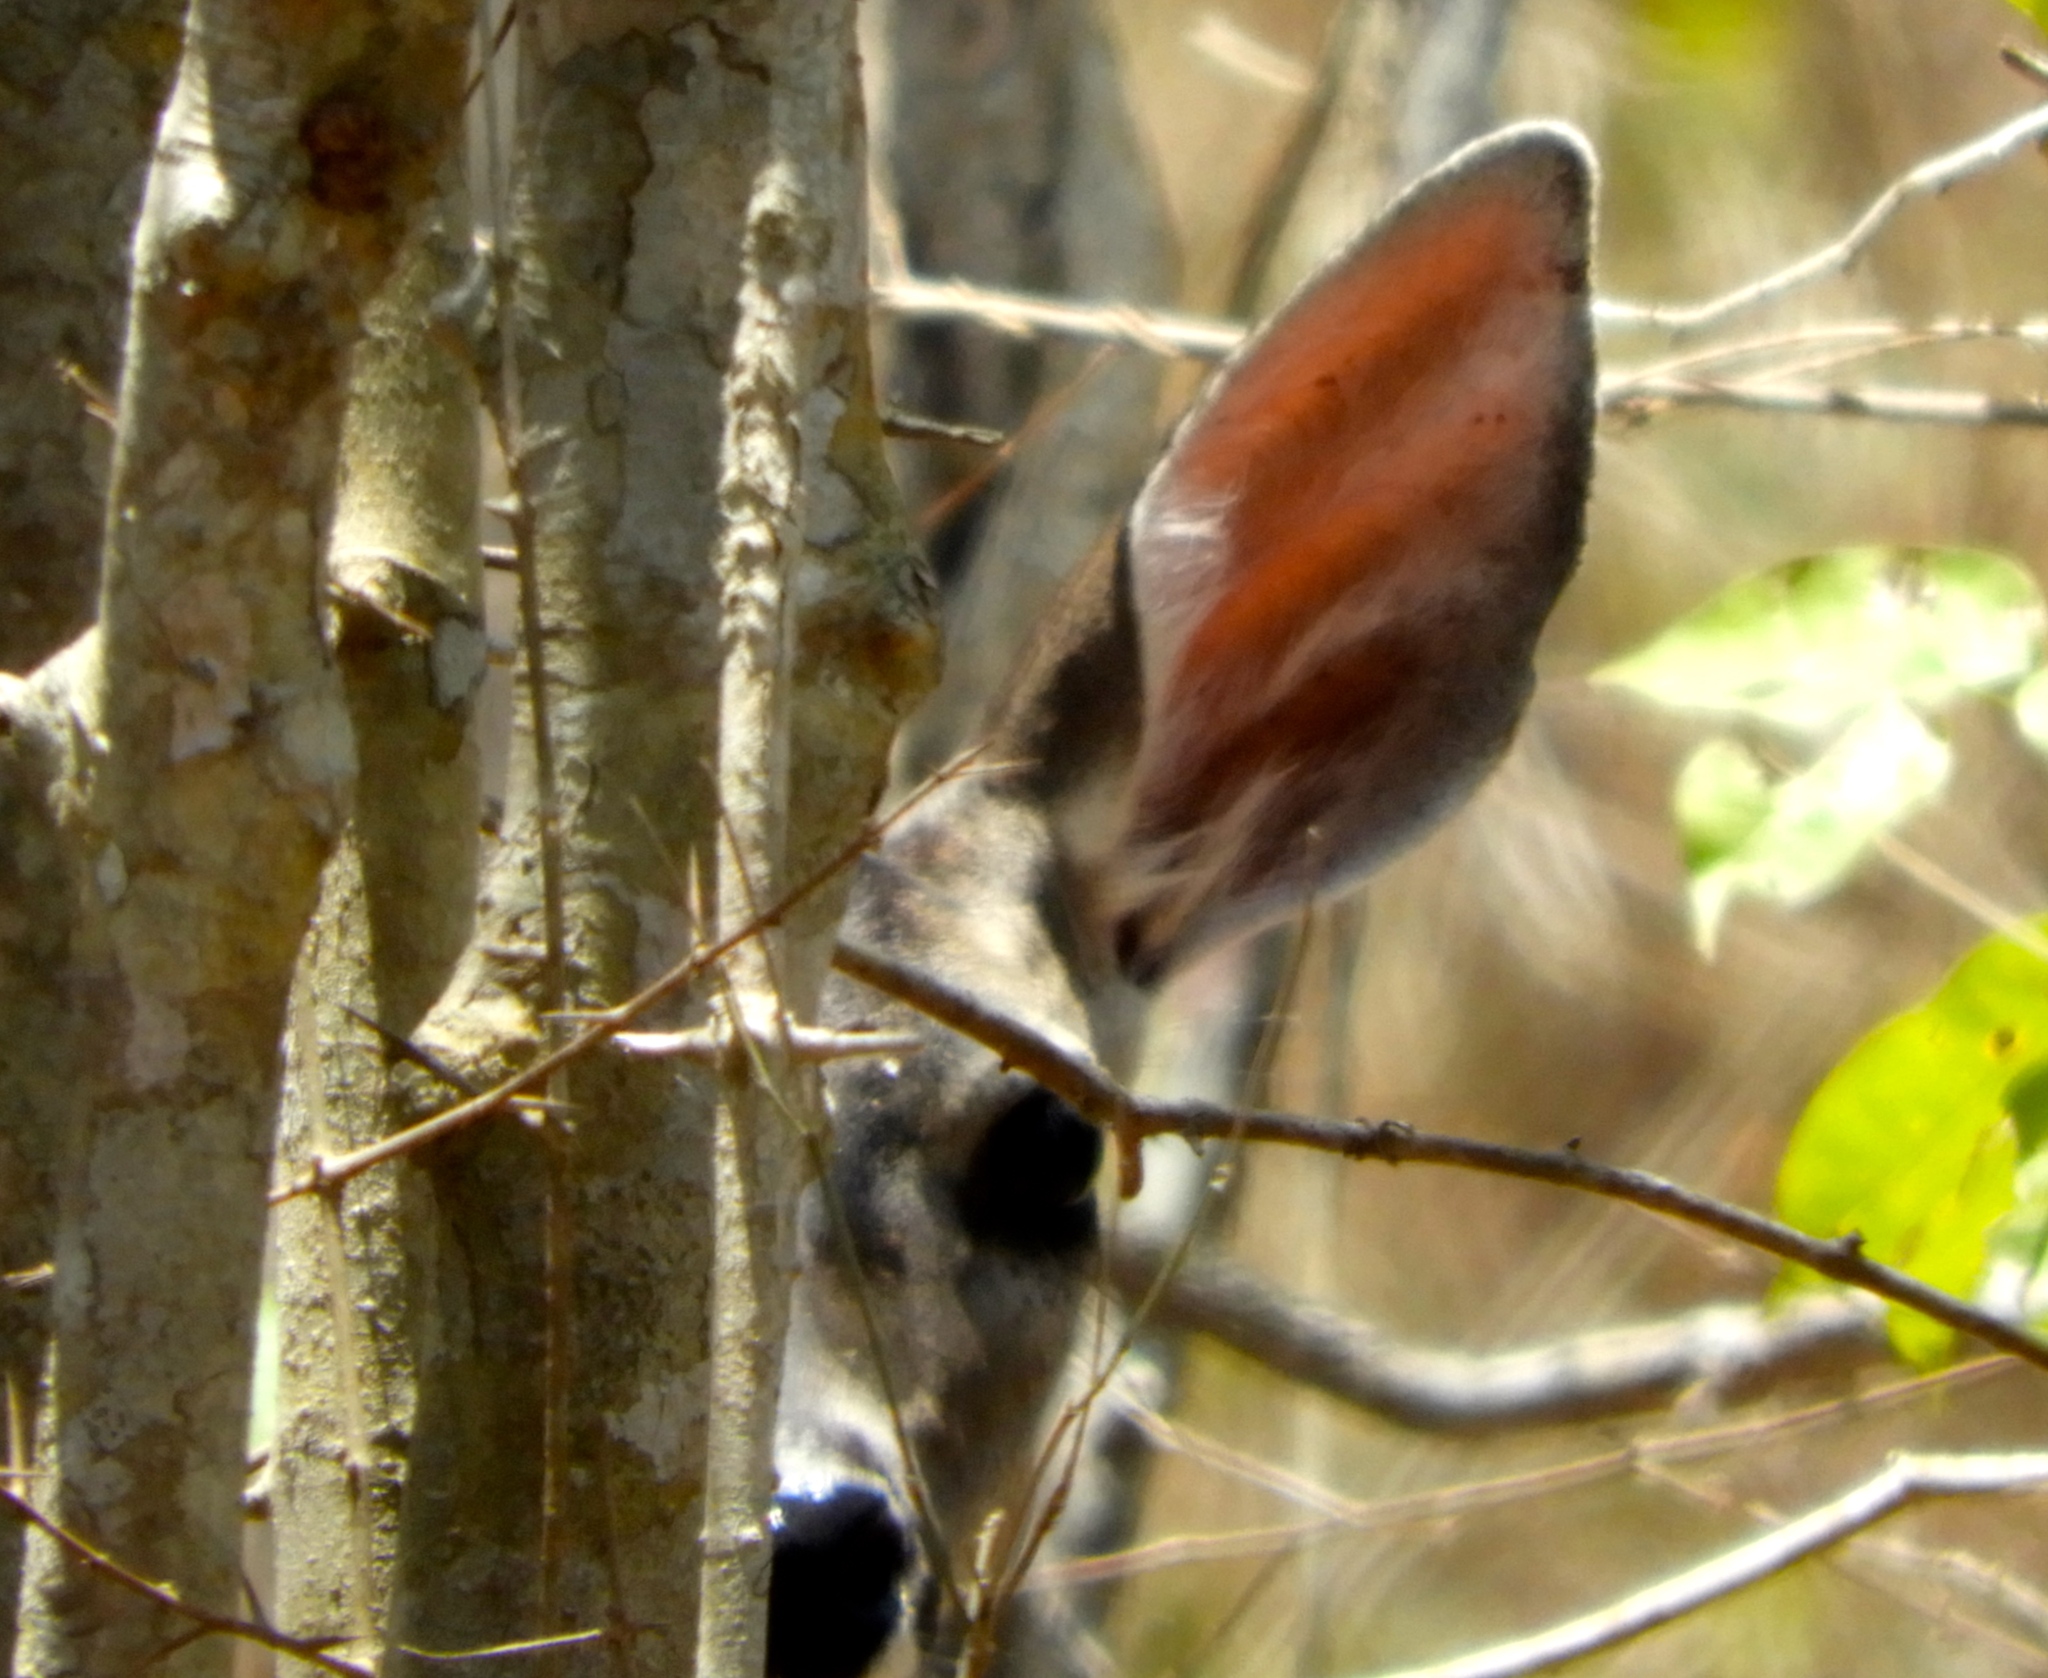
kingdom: Animalia
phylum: Chordata
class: Mammalia
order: Artiodactyla
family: Cervidae
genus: Odocoileus
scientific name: Odocoileus virginianus
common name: White-tailed deer
